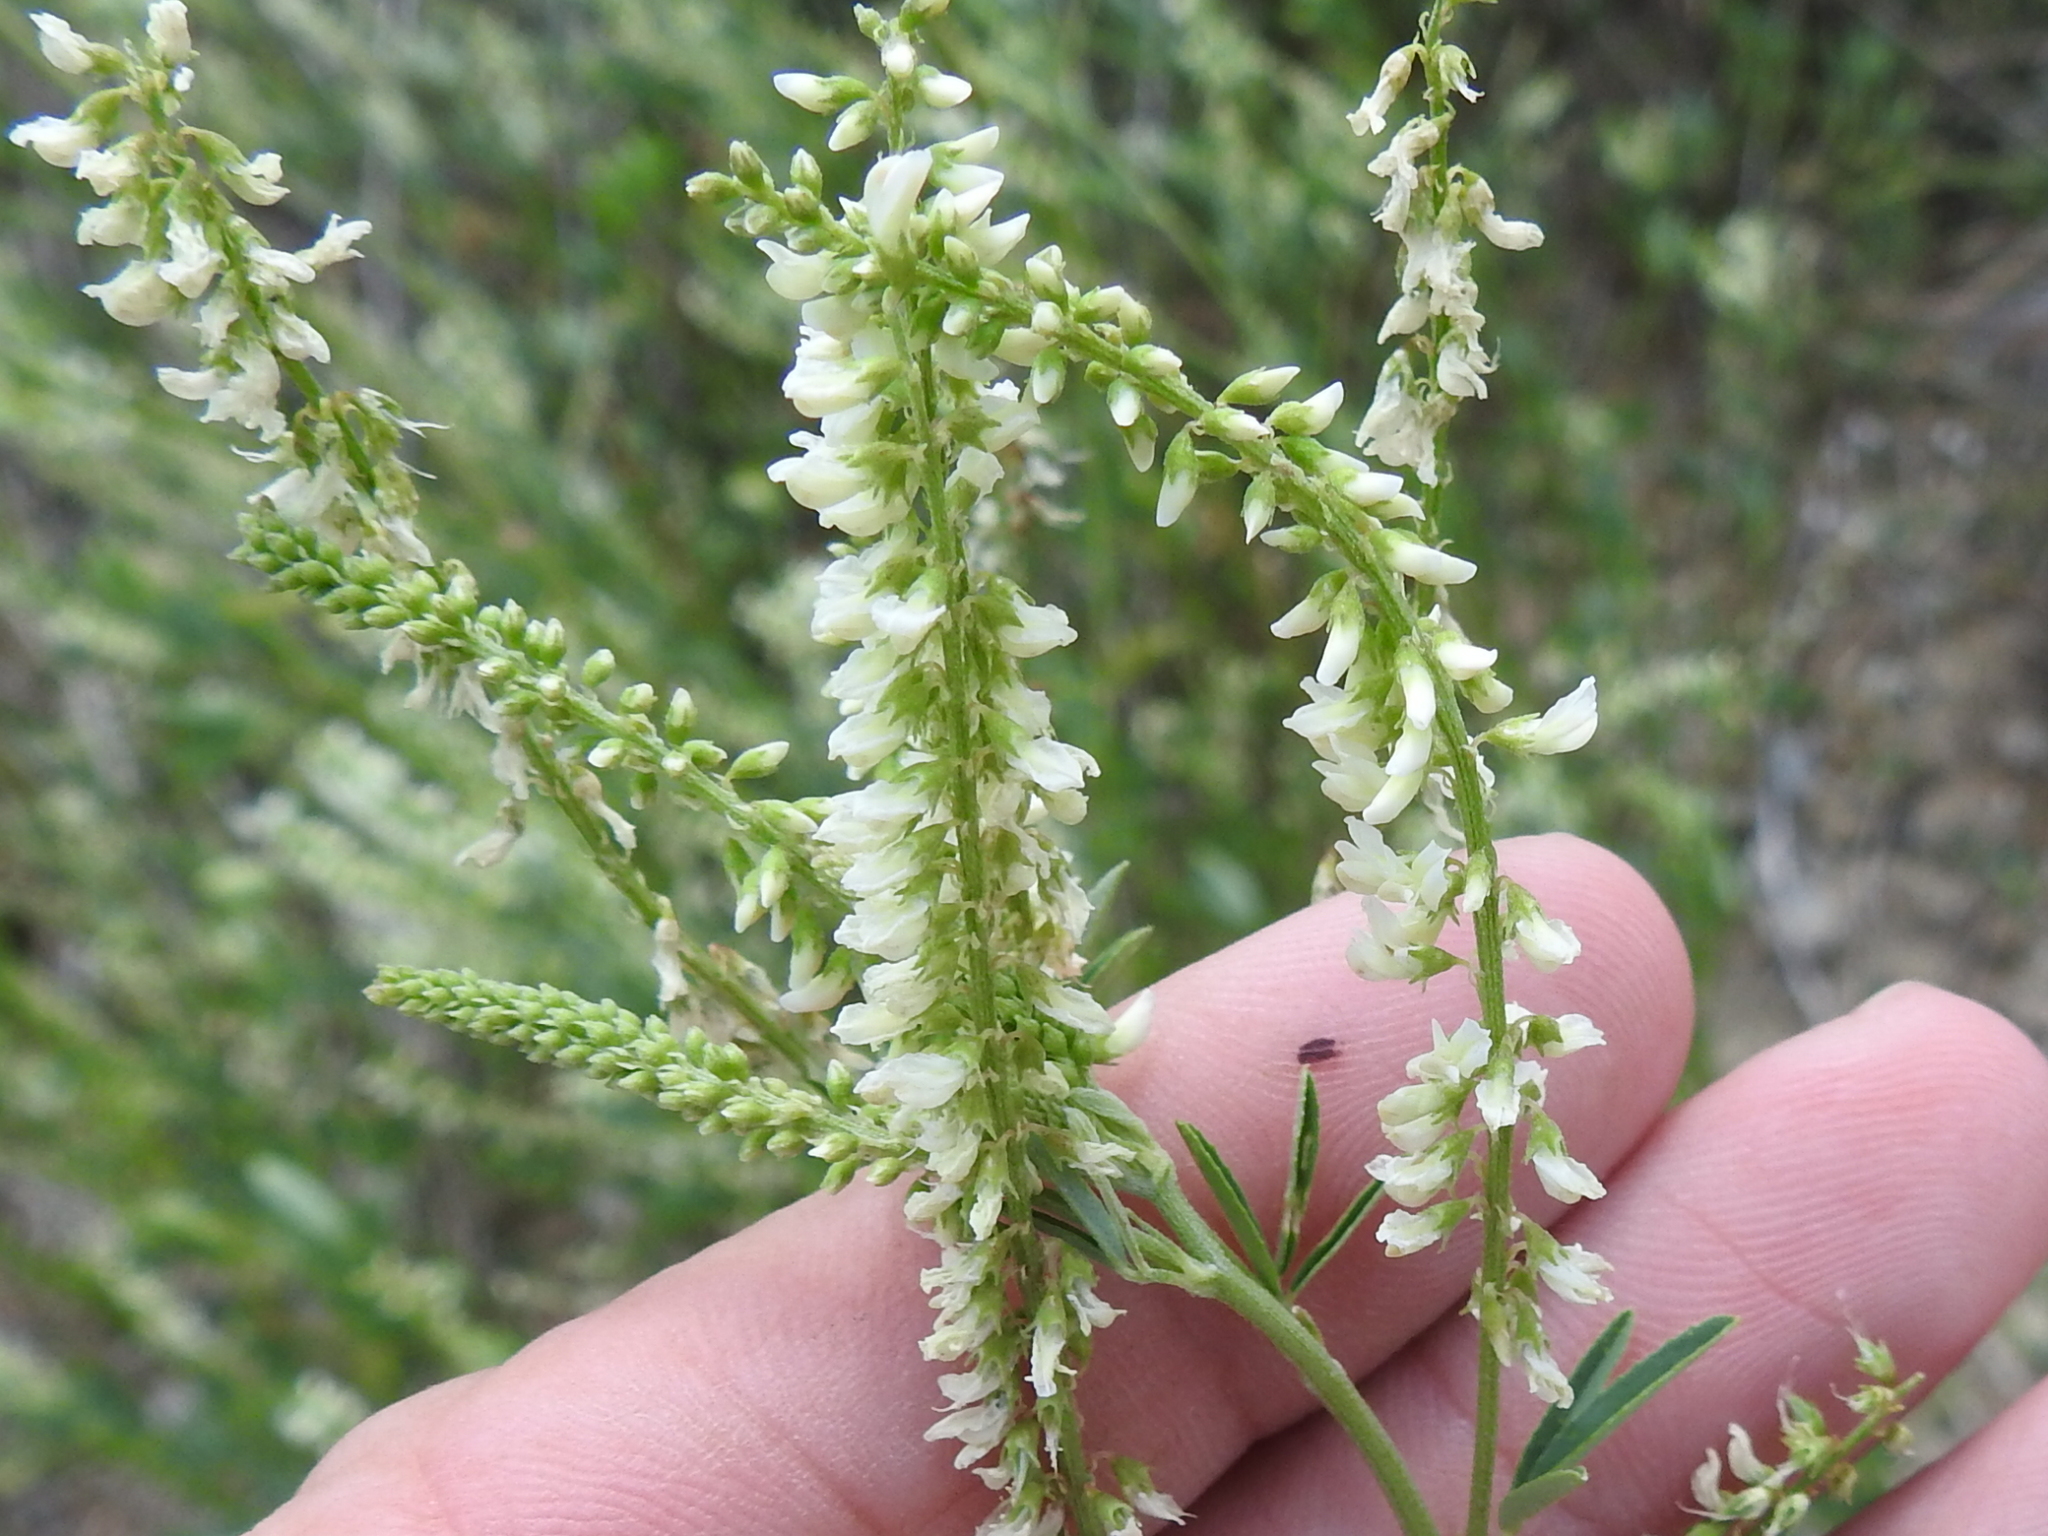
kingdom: Plantae
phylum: Tracheophyta
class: Magnoliopsida
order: Fabales
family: Fabaceae
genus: Melilotus
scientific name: Melilotus albus
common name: White melilot
